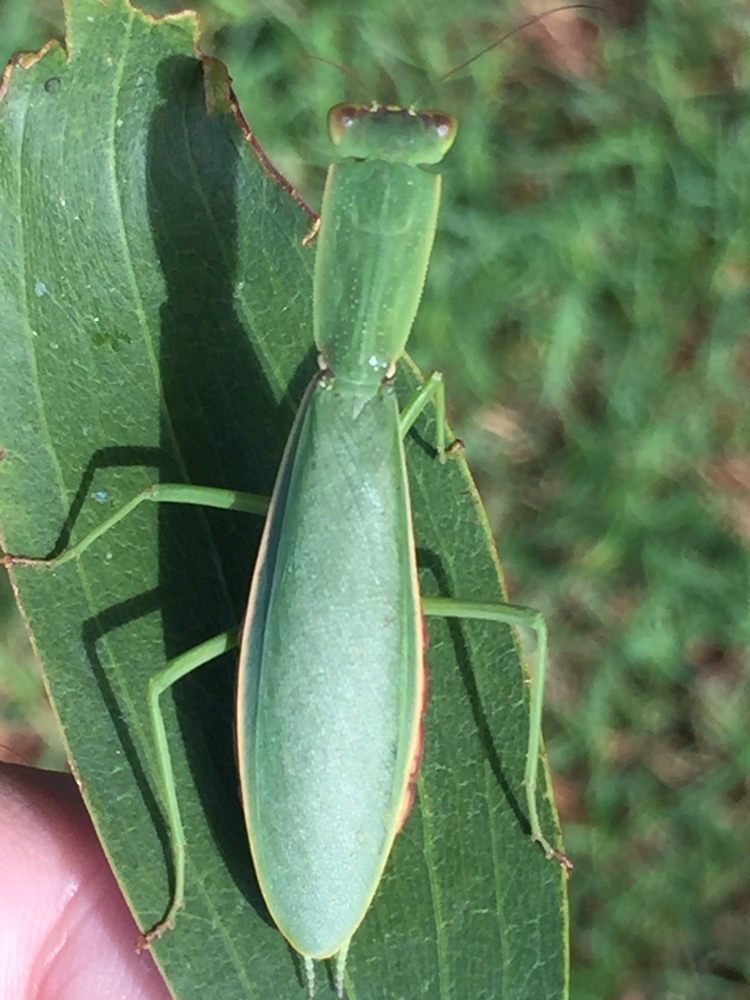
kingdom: Animalia
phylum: Arthropoda
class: Insecta
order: Mantodea
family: Mantidae
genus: Orthodera
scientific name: Orthodera novaezealandiae
